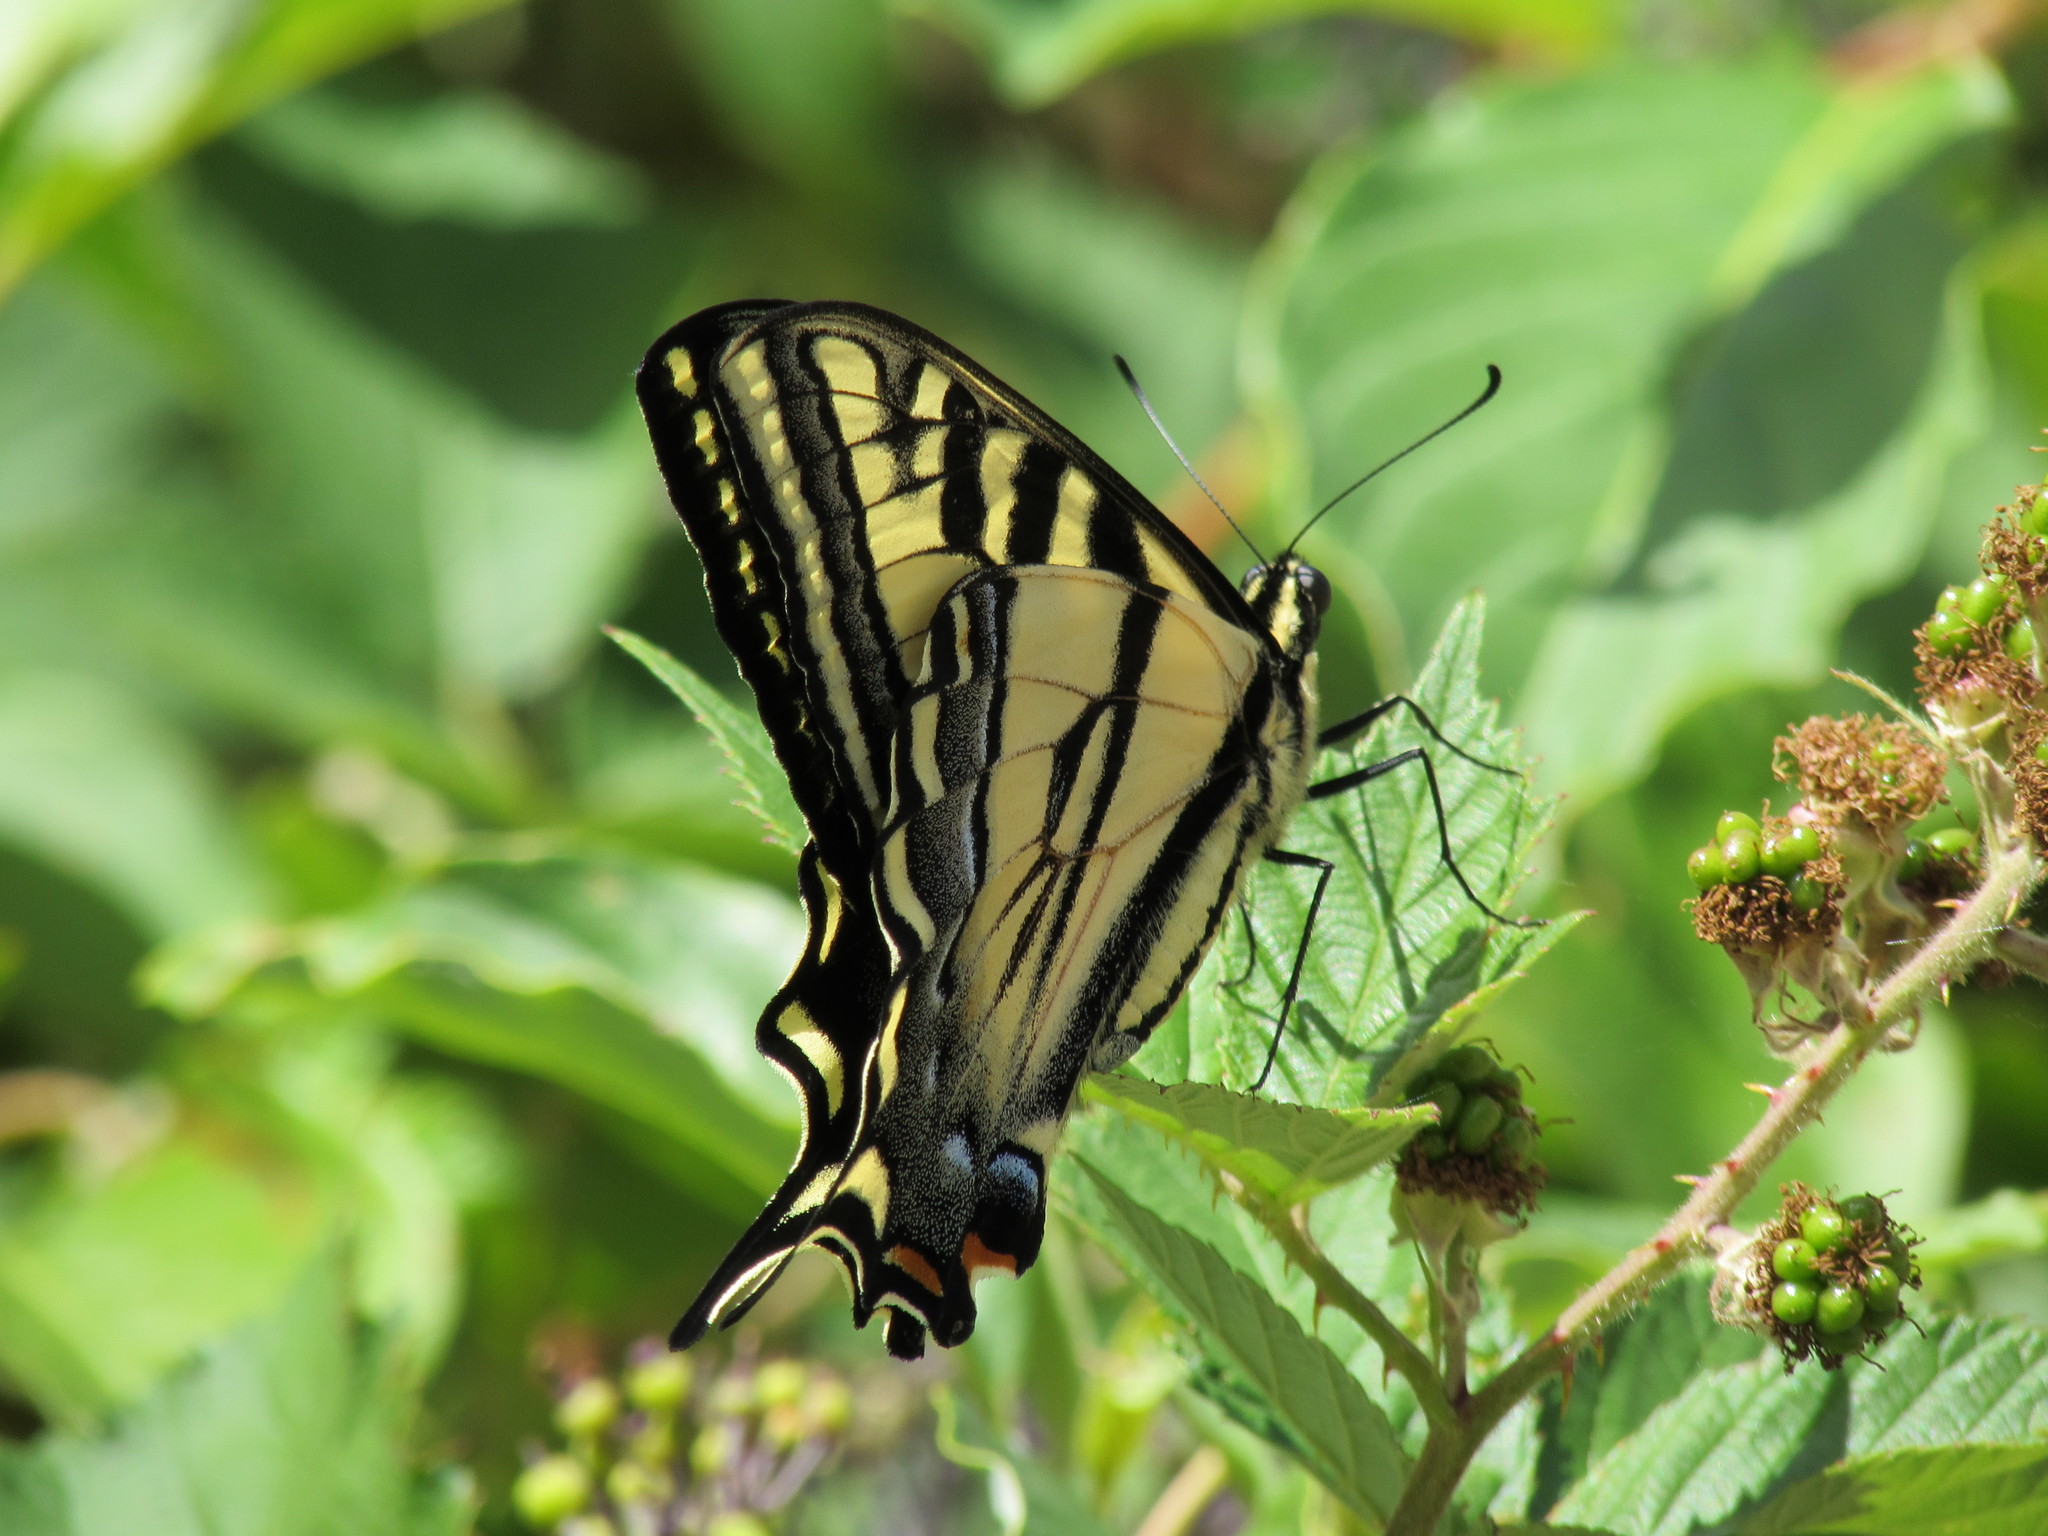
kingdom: Animalia
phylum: Arthropoda
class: Insecta
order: Lepidoptera
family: Papilionidae
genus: Papilio
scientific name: Papilio rutulus
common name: Western tiger swallowtail
